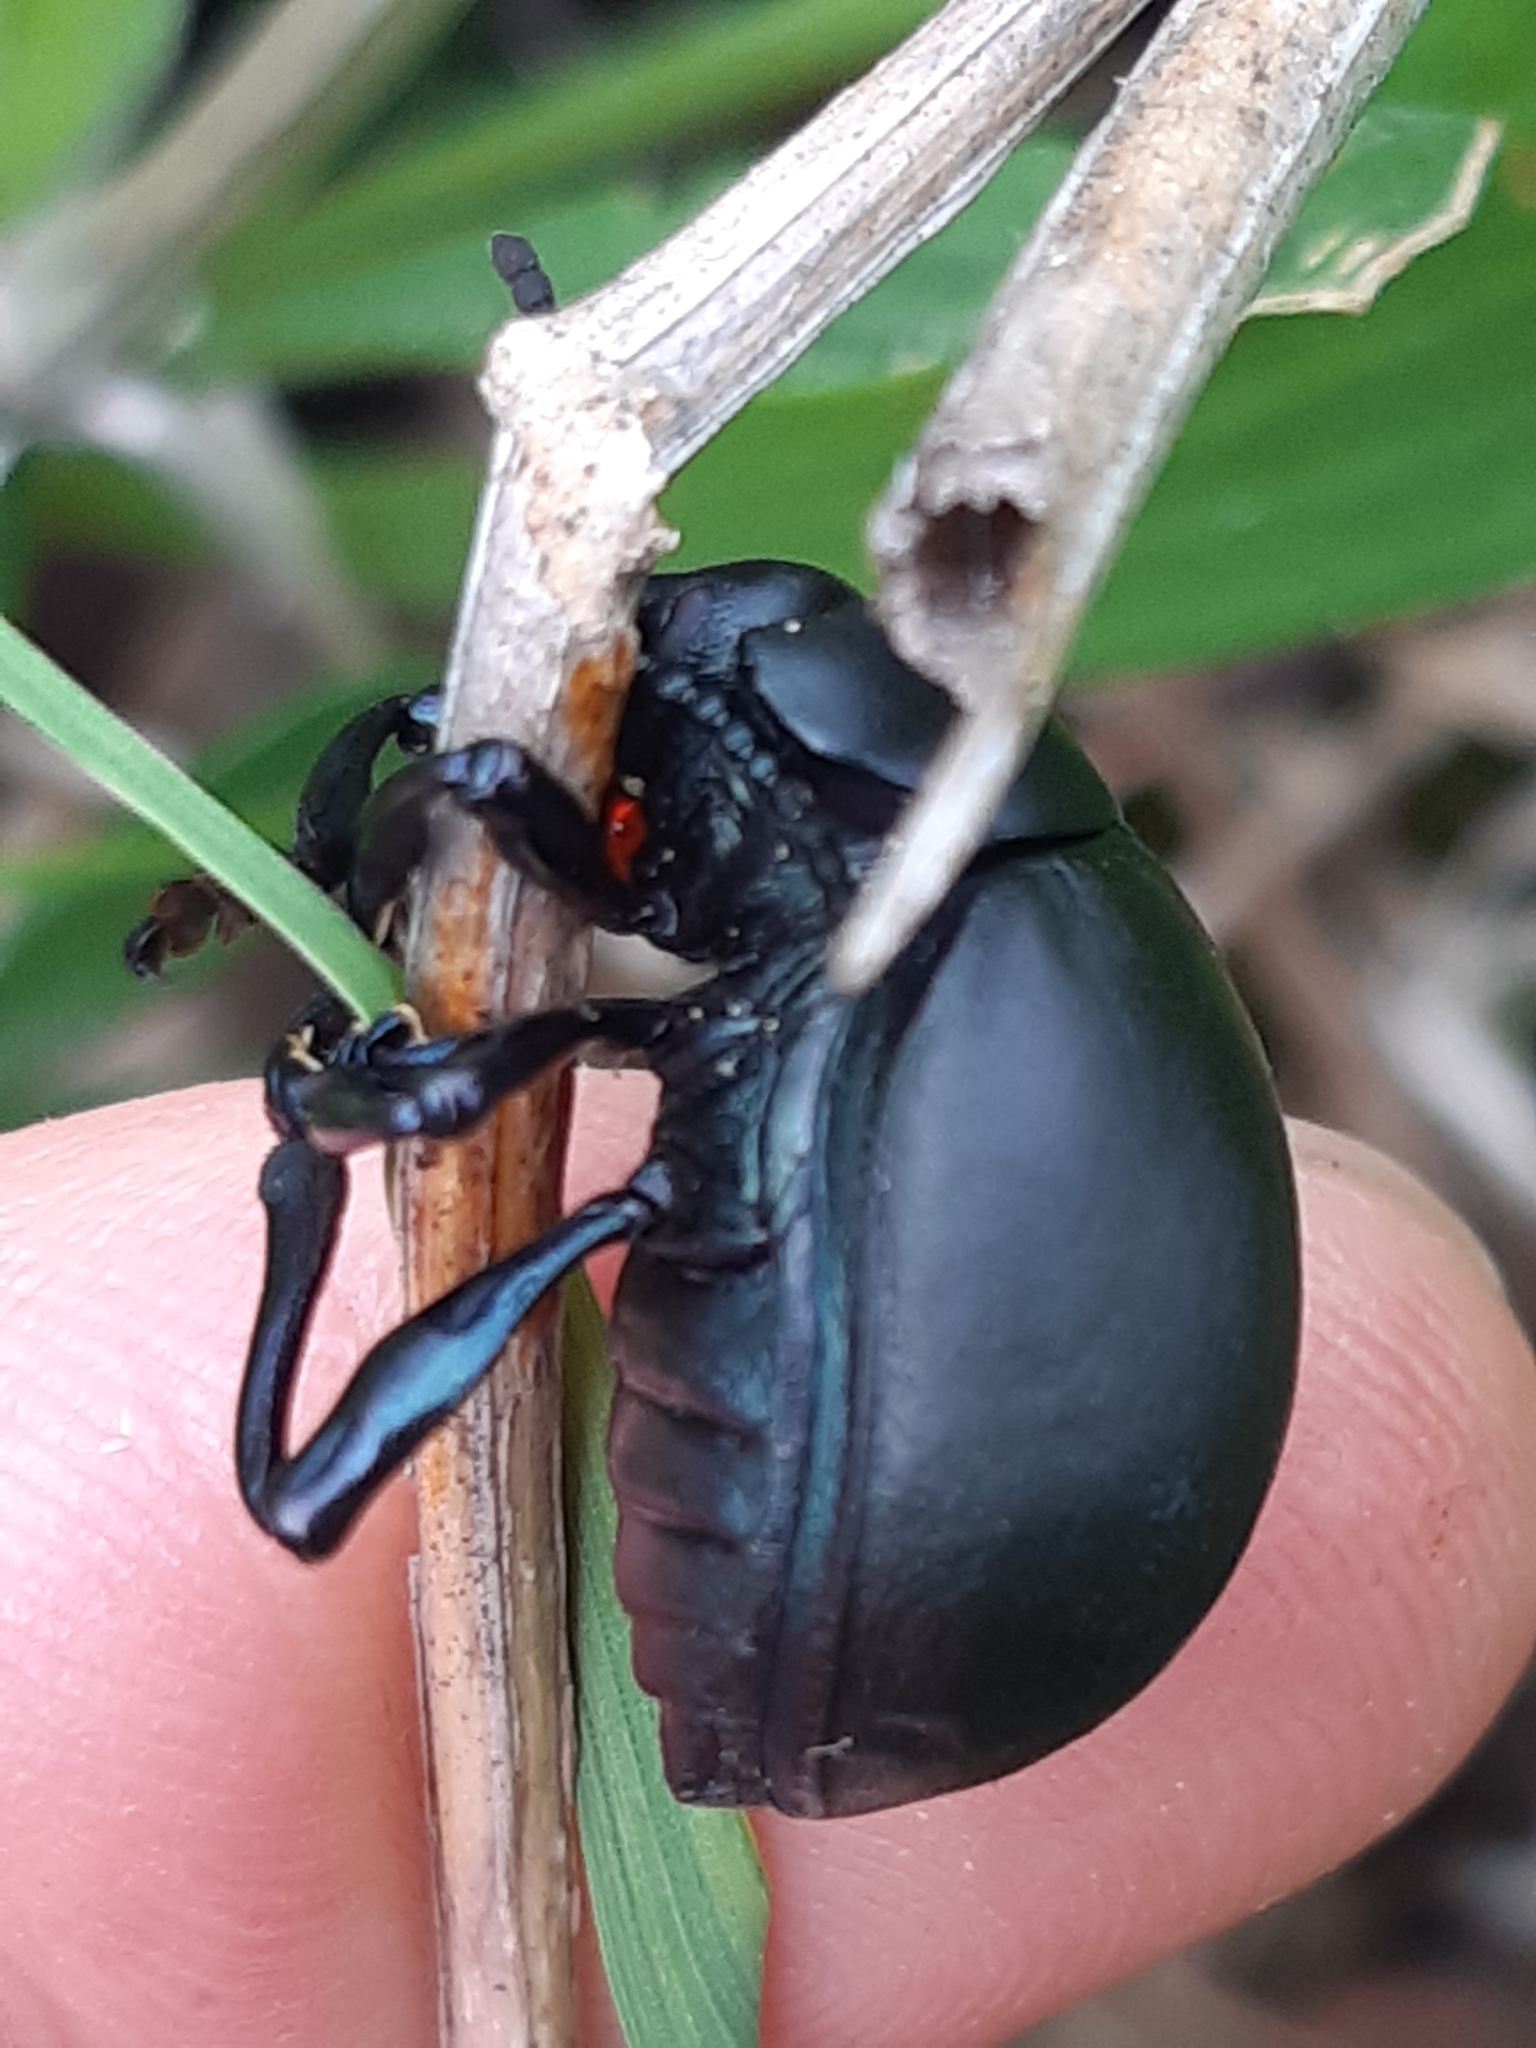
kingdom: Animalia
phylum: Arthropoda
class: Insecta
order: Coleoptera
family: Chrysomelidae
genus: Timarcha
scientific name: Timarcha tenebricosa
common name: Bloody-nosed beetle
